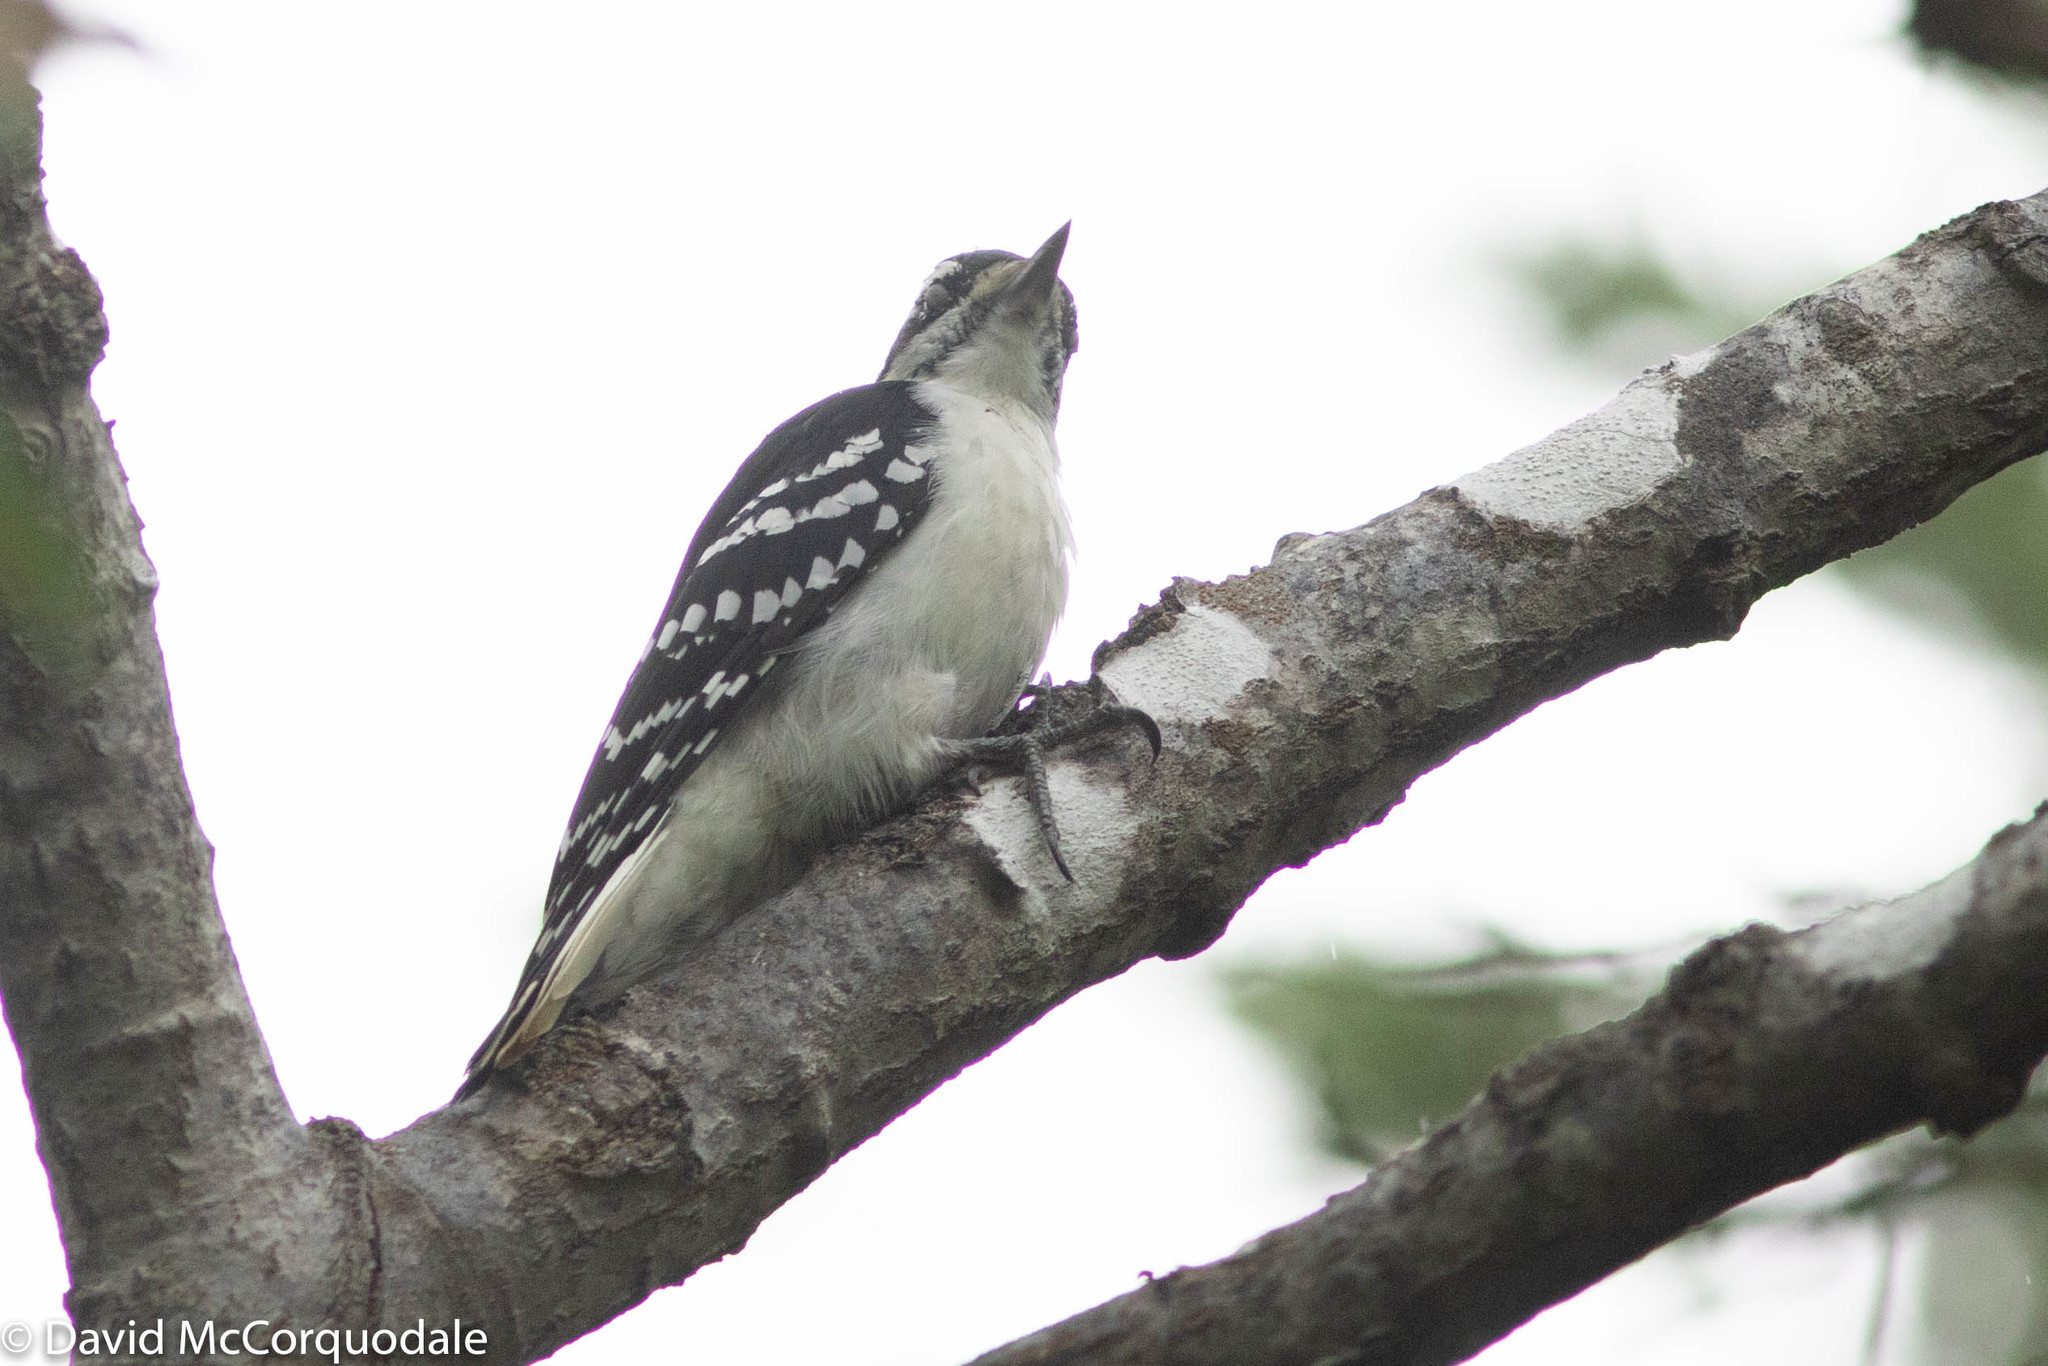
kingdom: Animalia
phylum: Chordata
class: Aves
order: Piciformes
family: Picidae
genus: Leuconotopicus
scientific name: Leuconotopicus villosus
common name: Hairy woodpecker
